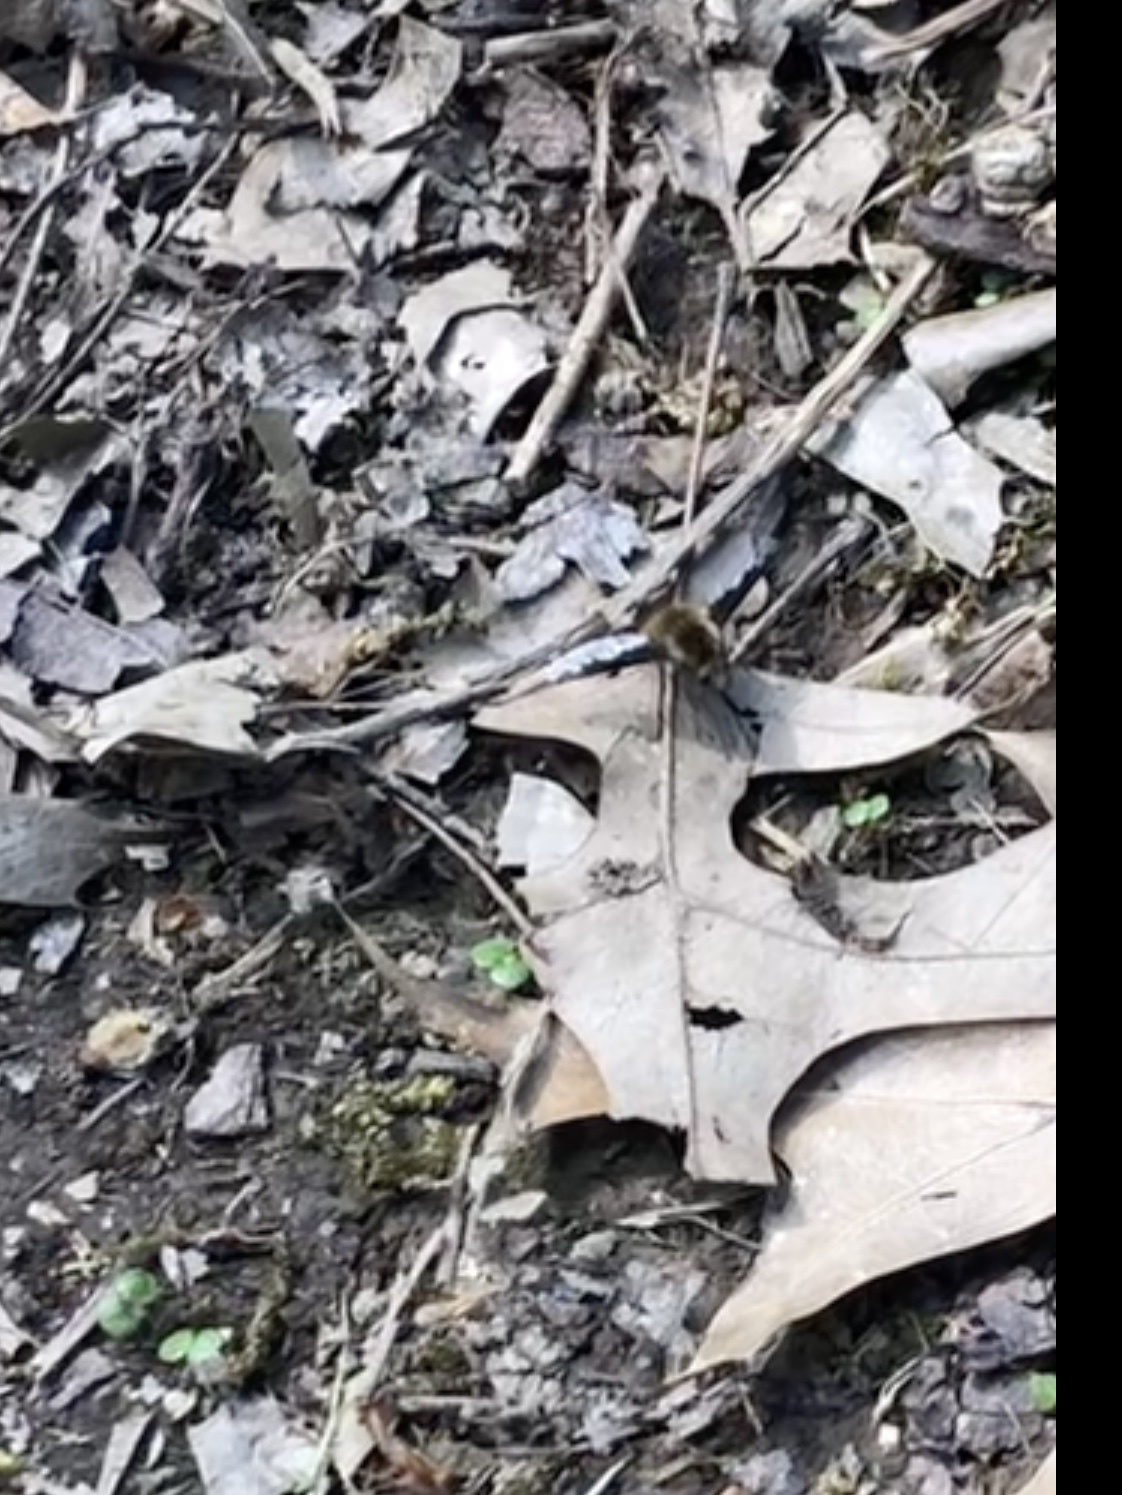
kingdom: Animalia
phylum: Arthropoda
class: Insecta
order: Diptera
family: Bombyliidae
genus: Bombylius
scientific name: Bombylius major
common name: Bee fly
